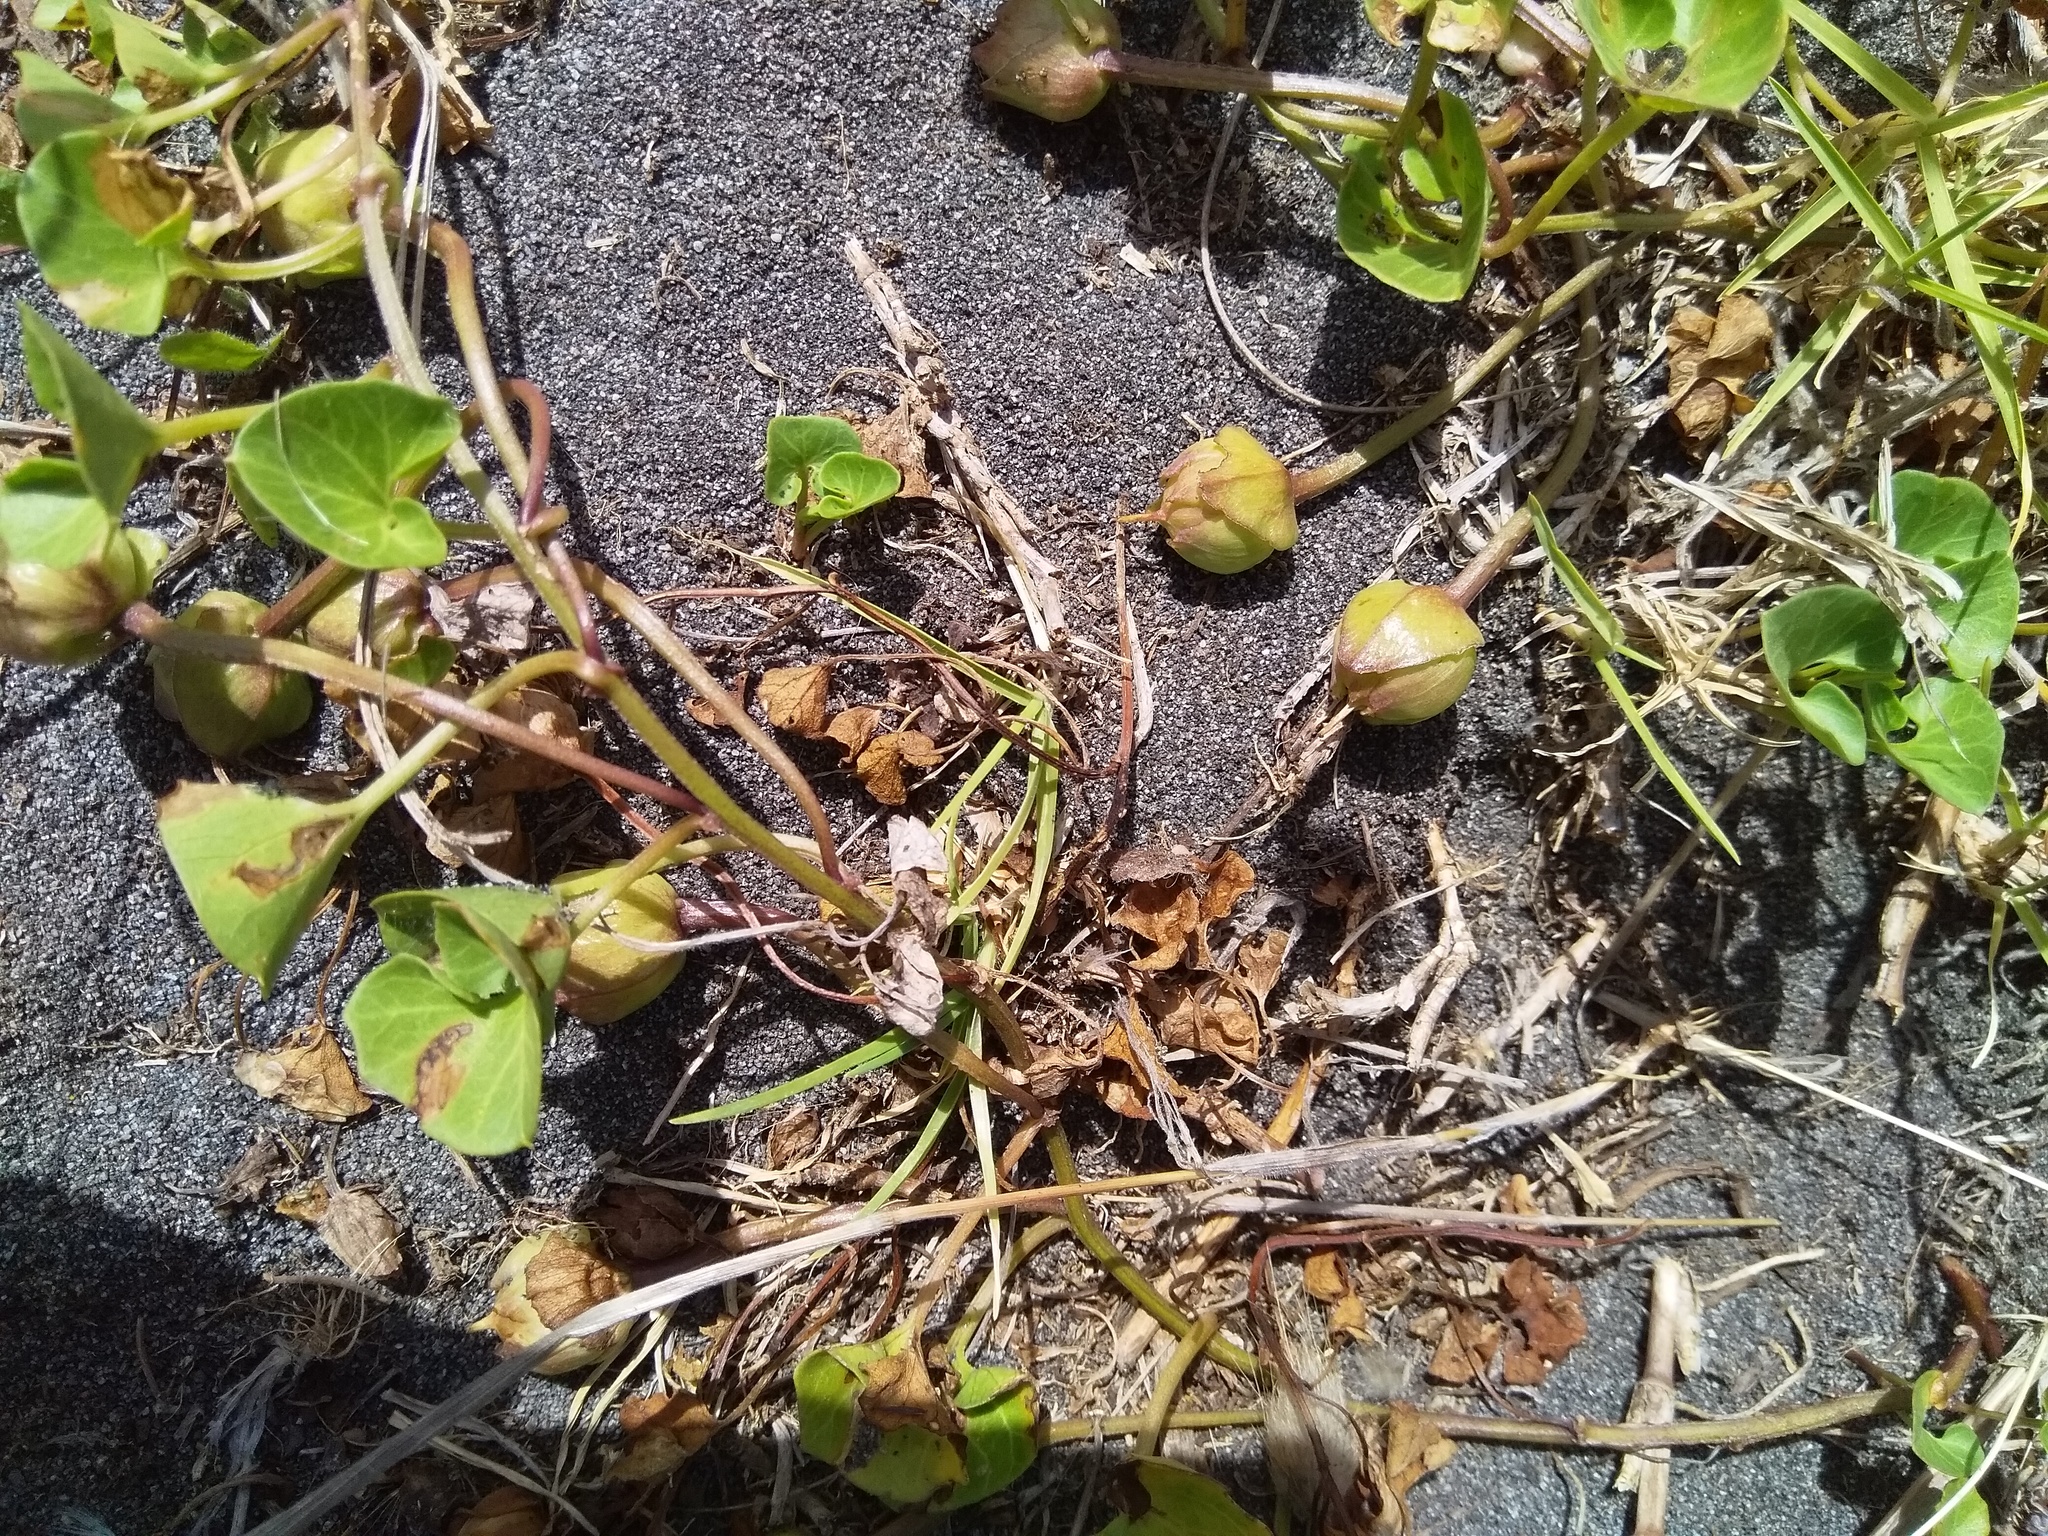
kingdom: Plantae
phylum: Tracheophyta
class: Magnoliopsida
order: Solanales
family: Convolvulaceae
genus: Calystegia
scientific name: Calystegia soldanella
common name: Sea bindweed
